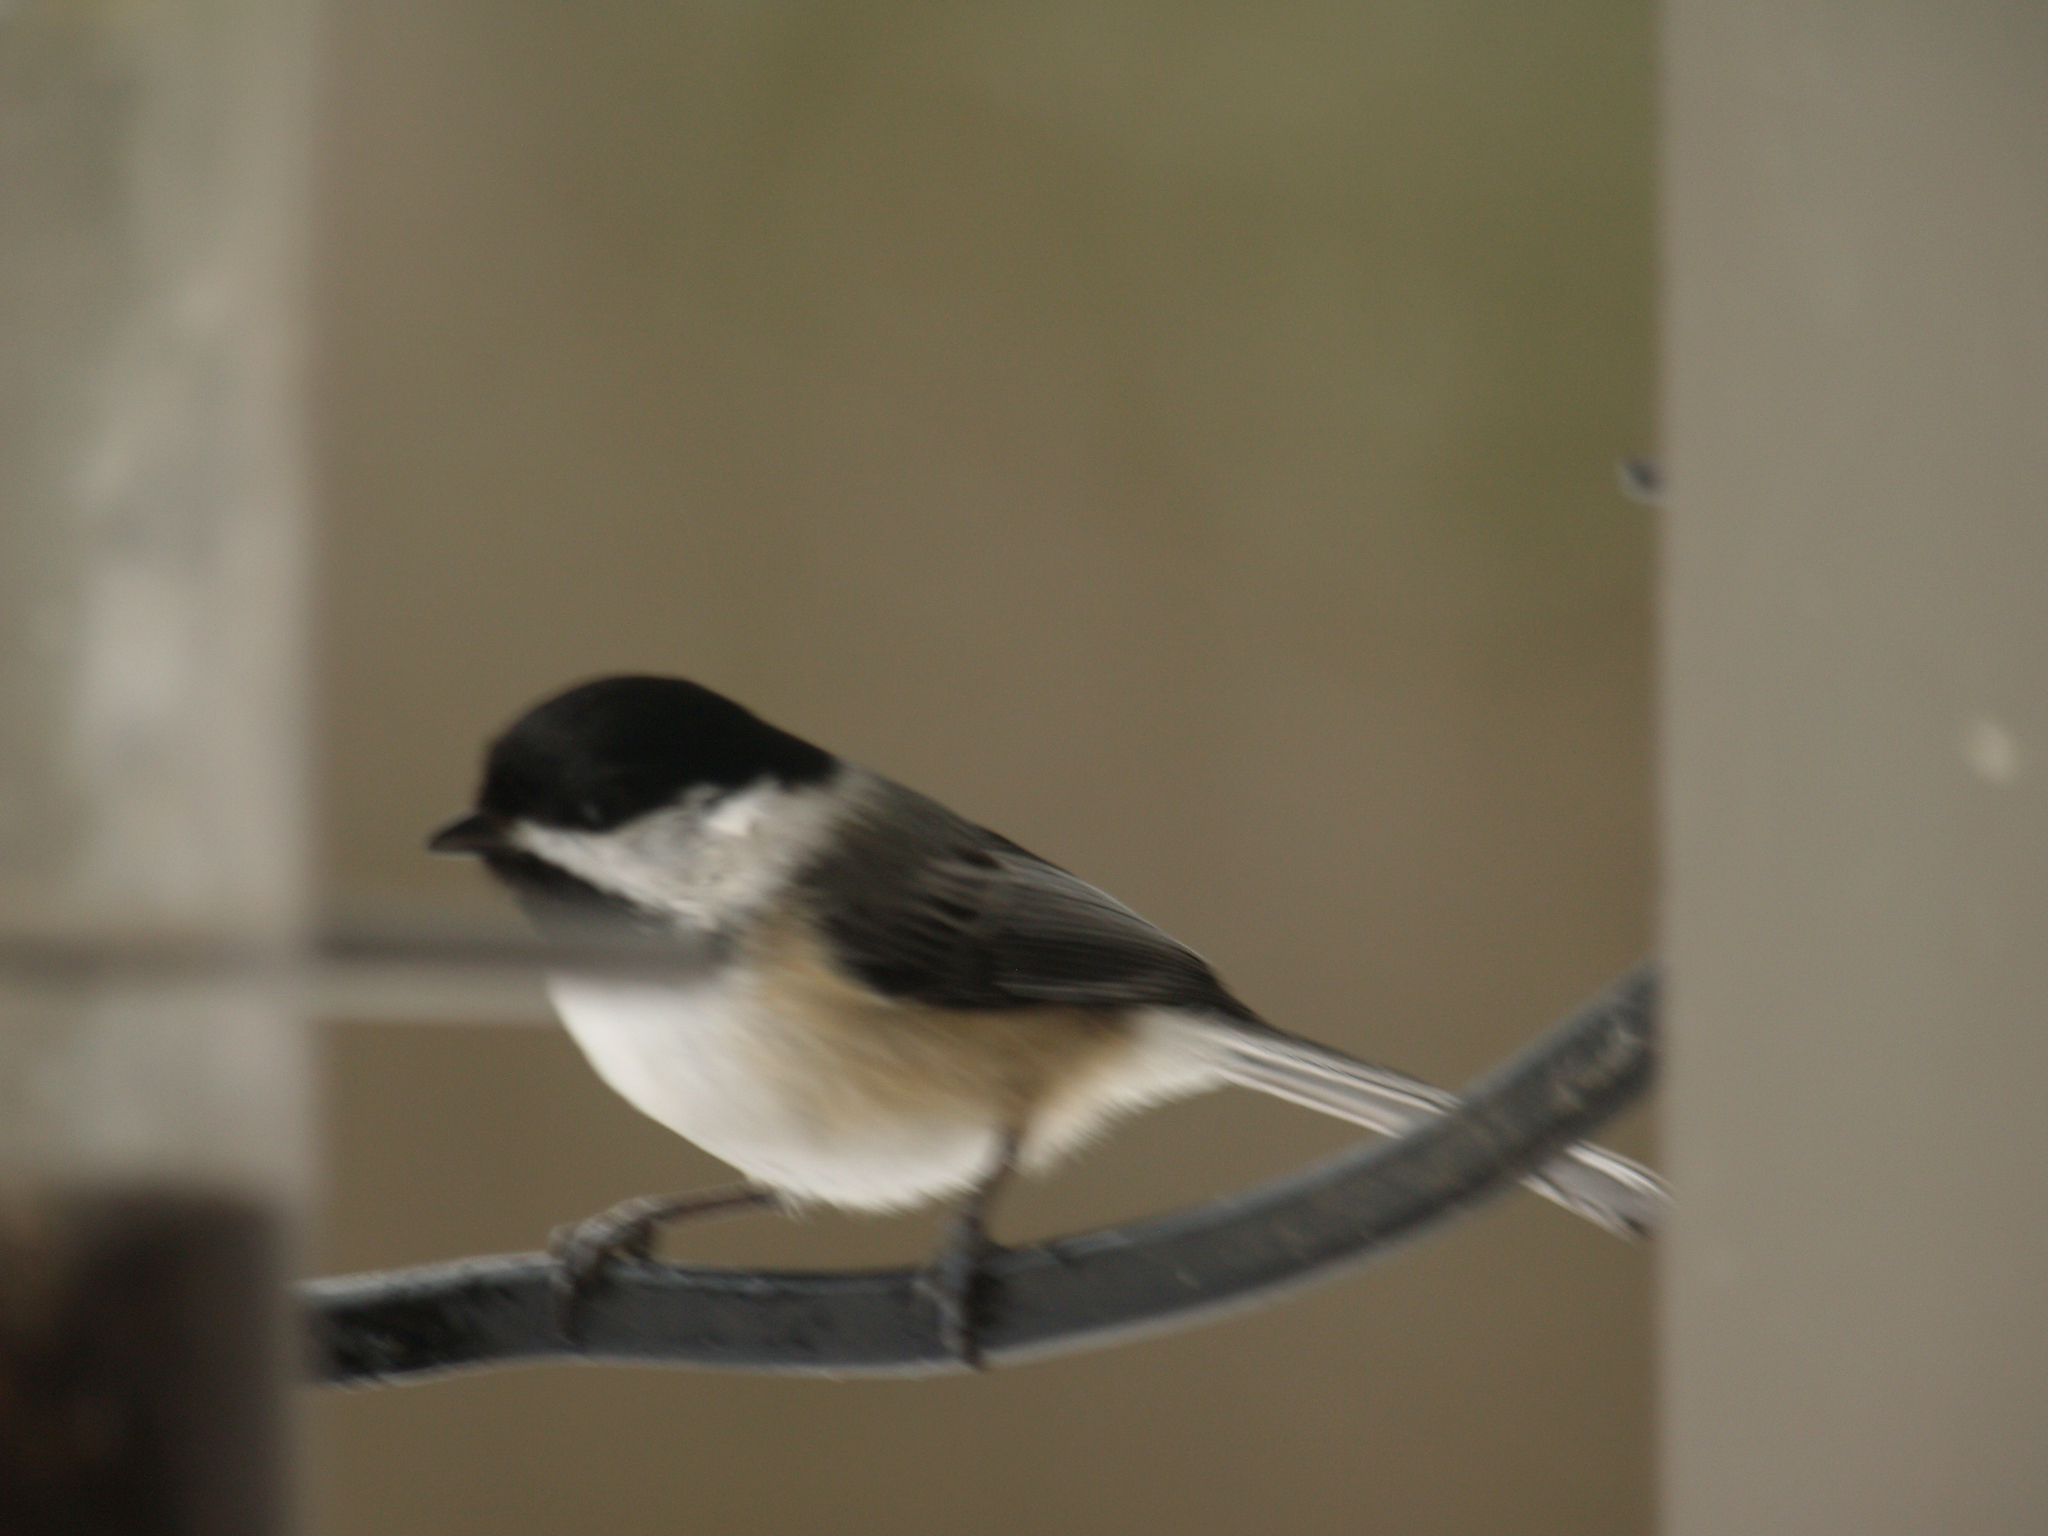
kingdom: Animalia
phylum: Chordata
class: Aves
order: Passeriformes
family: Paridae
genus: Poecile
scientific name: Poecile atricapillus
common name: Black-capped chickadee
